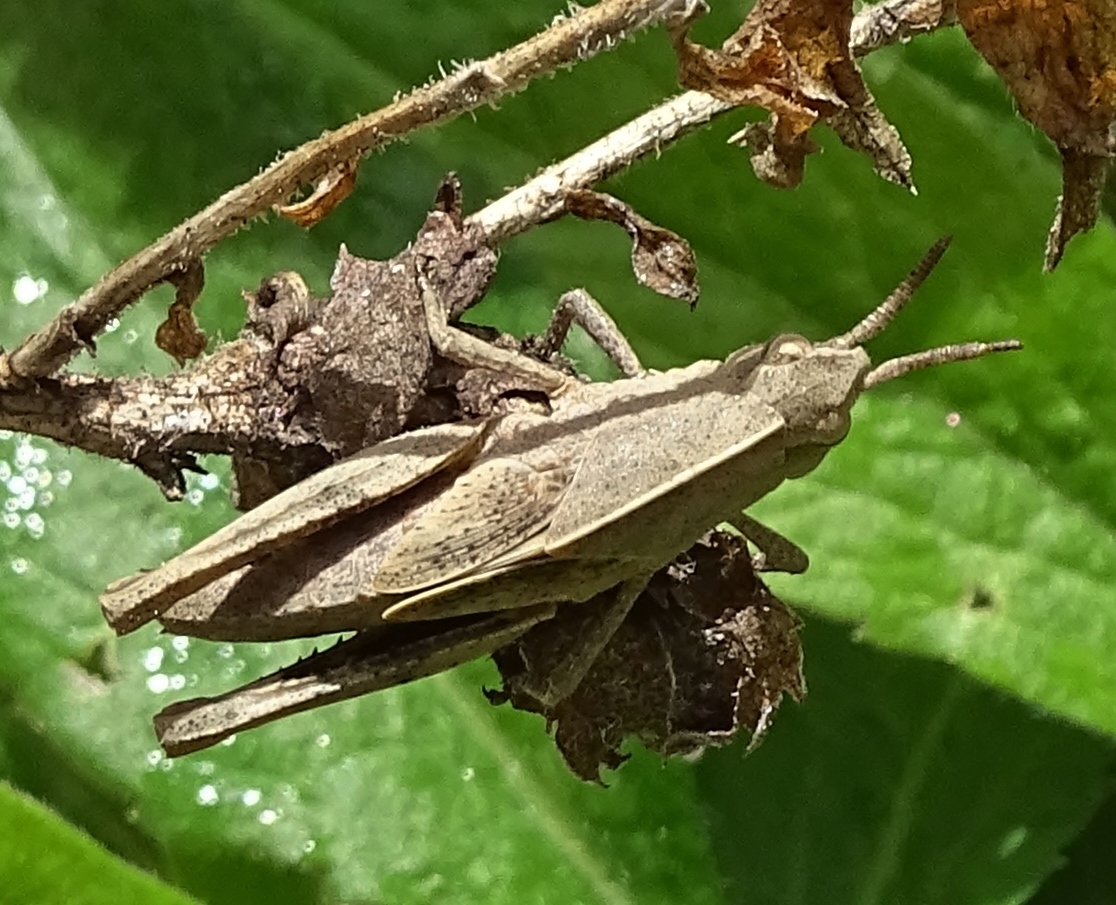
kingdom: Animalia
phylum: Arthropoda
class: Insecta
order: Orthoptera
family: Acrididae
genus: Chortophaga
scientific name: Chortophaga viridifasciata
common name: Green-striped grasshopper
